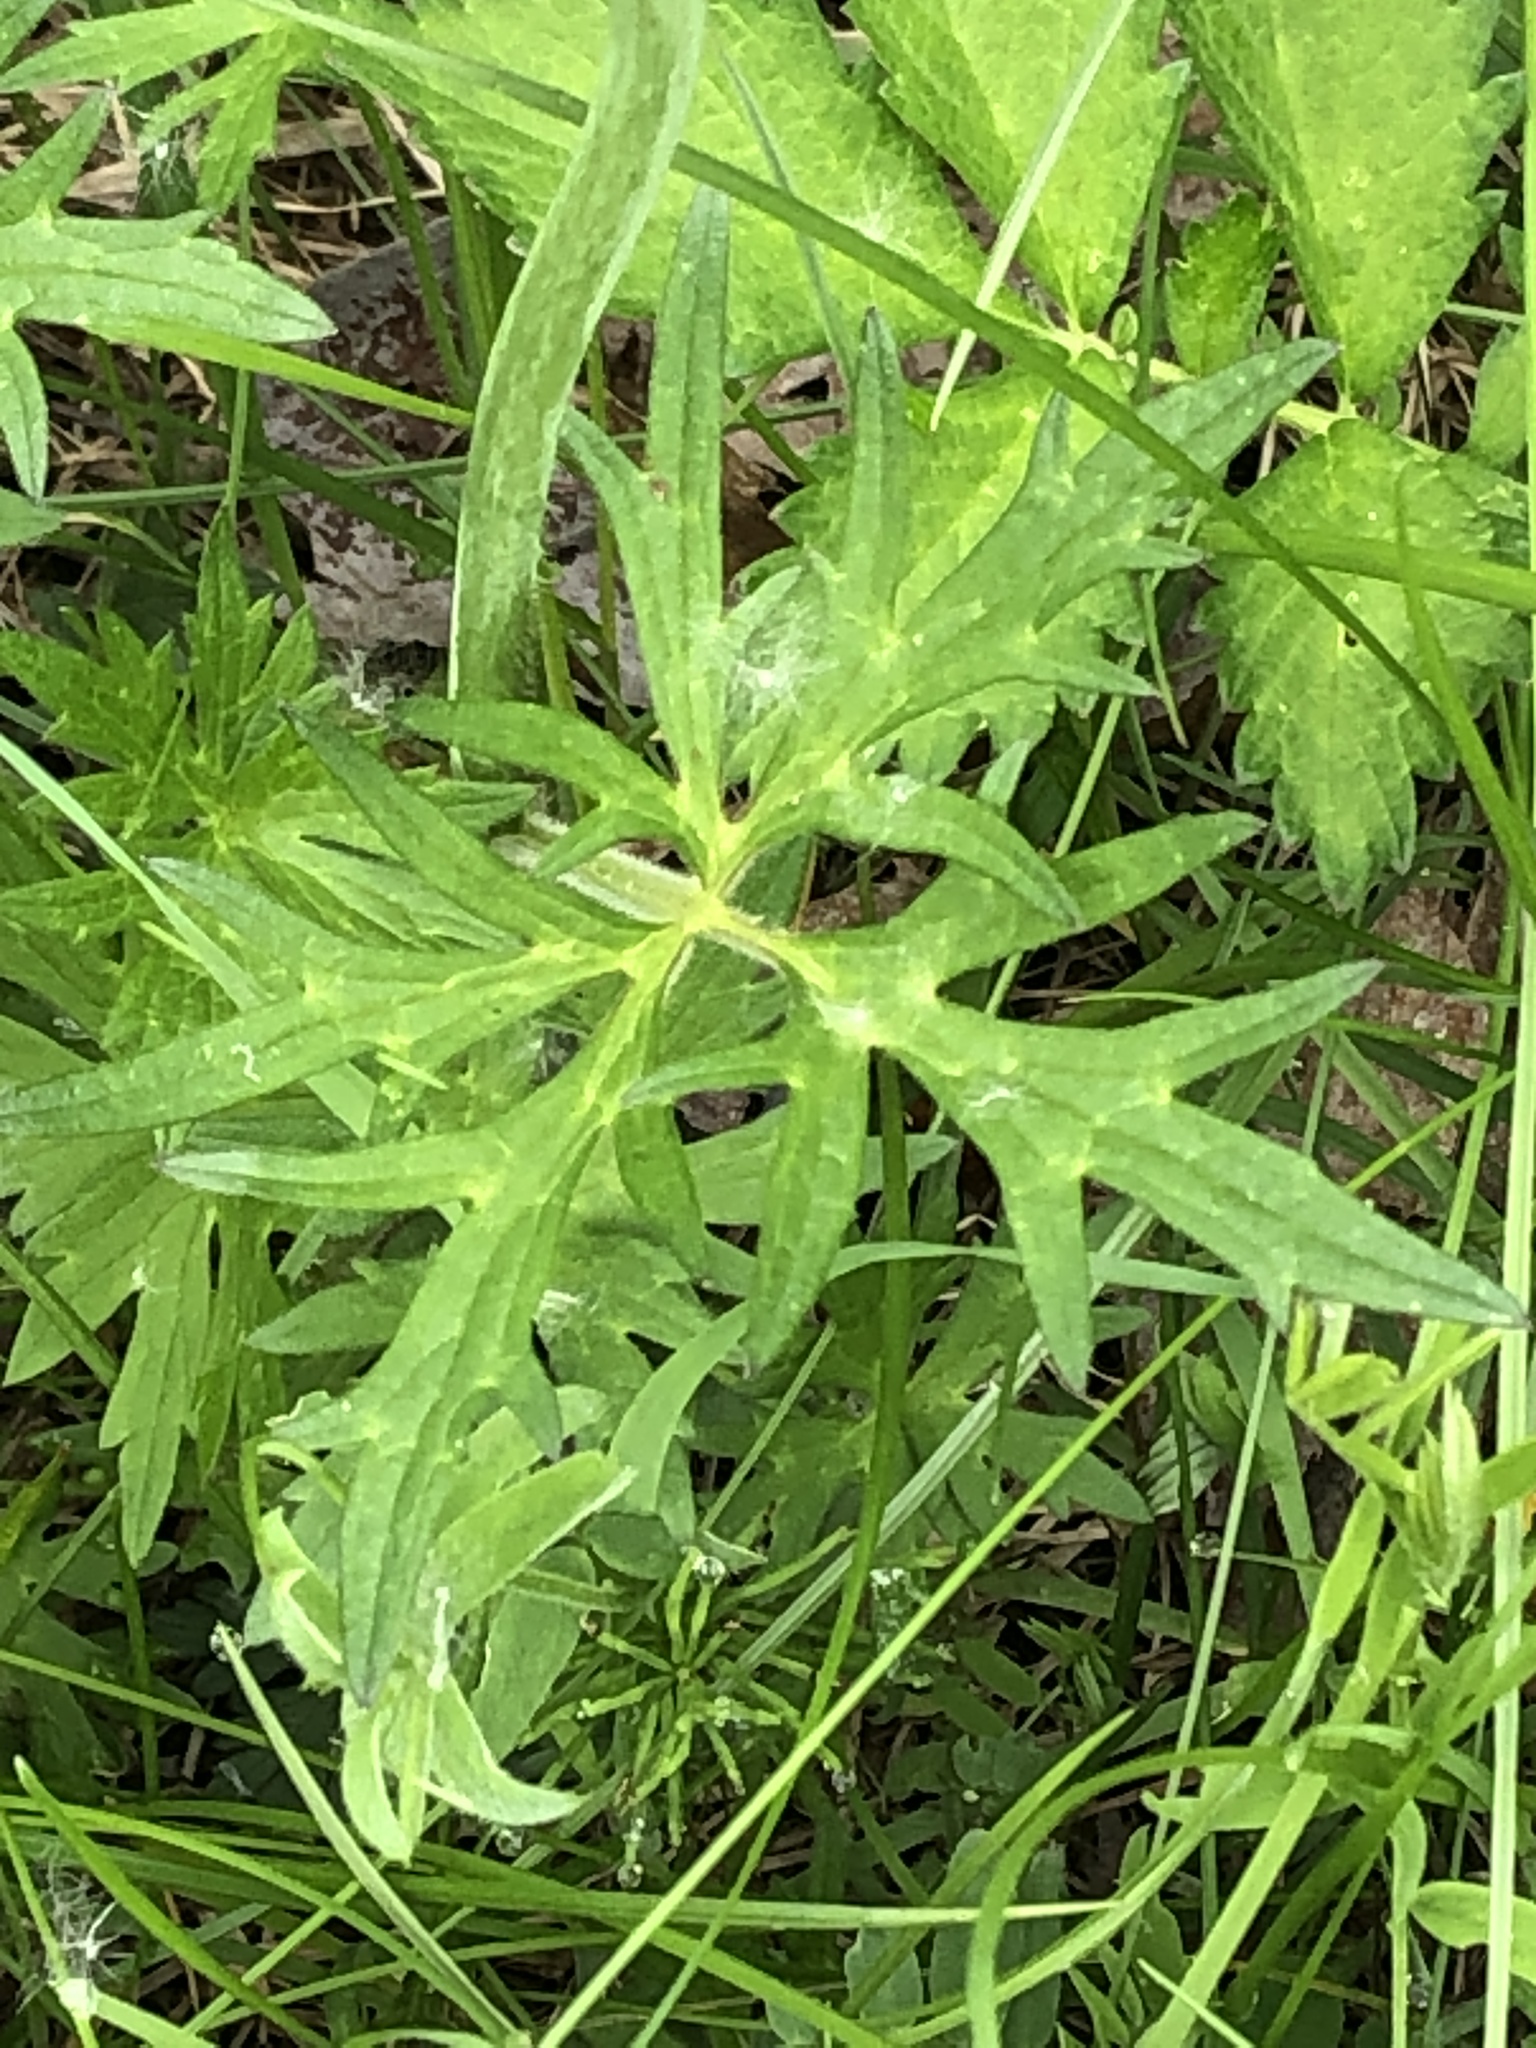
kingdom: Plantae
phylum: Tracheophyta
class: Magnoliopsida
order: Ranunculales
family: Ranunculaceae
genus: Ranunculus
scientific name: Ranunculus acris
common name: Meadow buttercup
